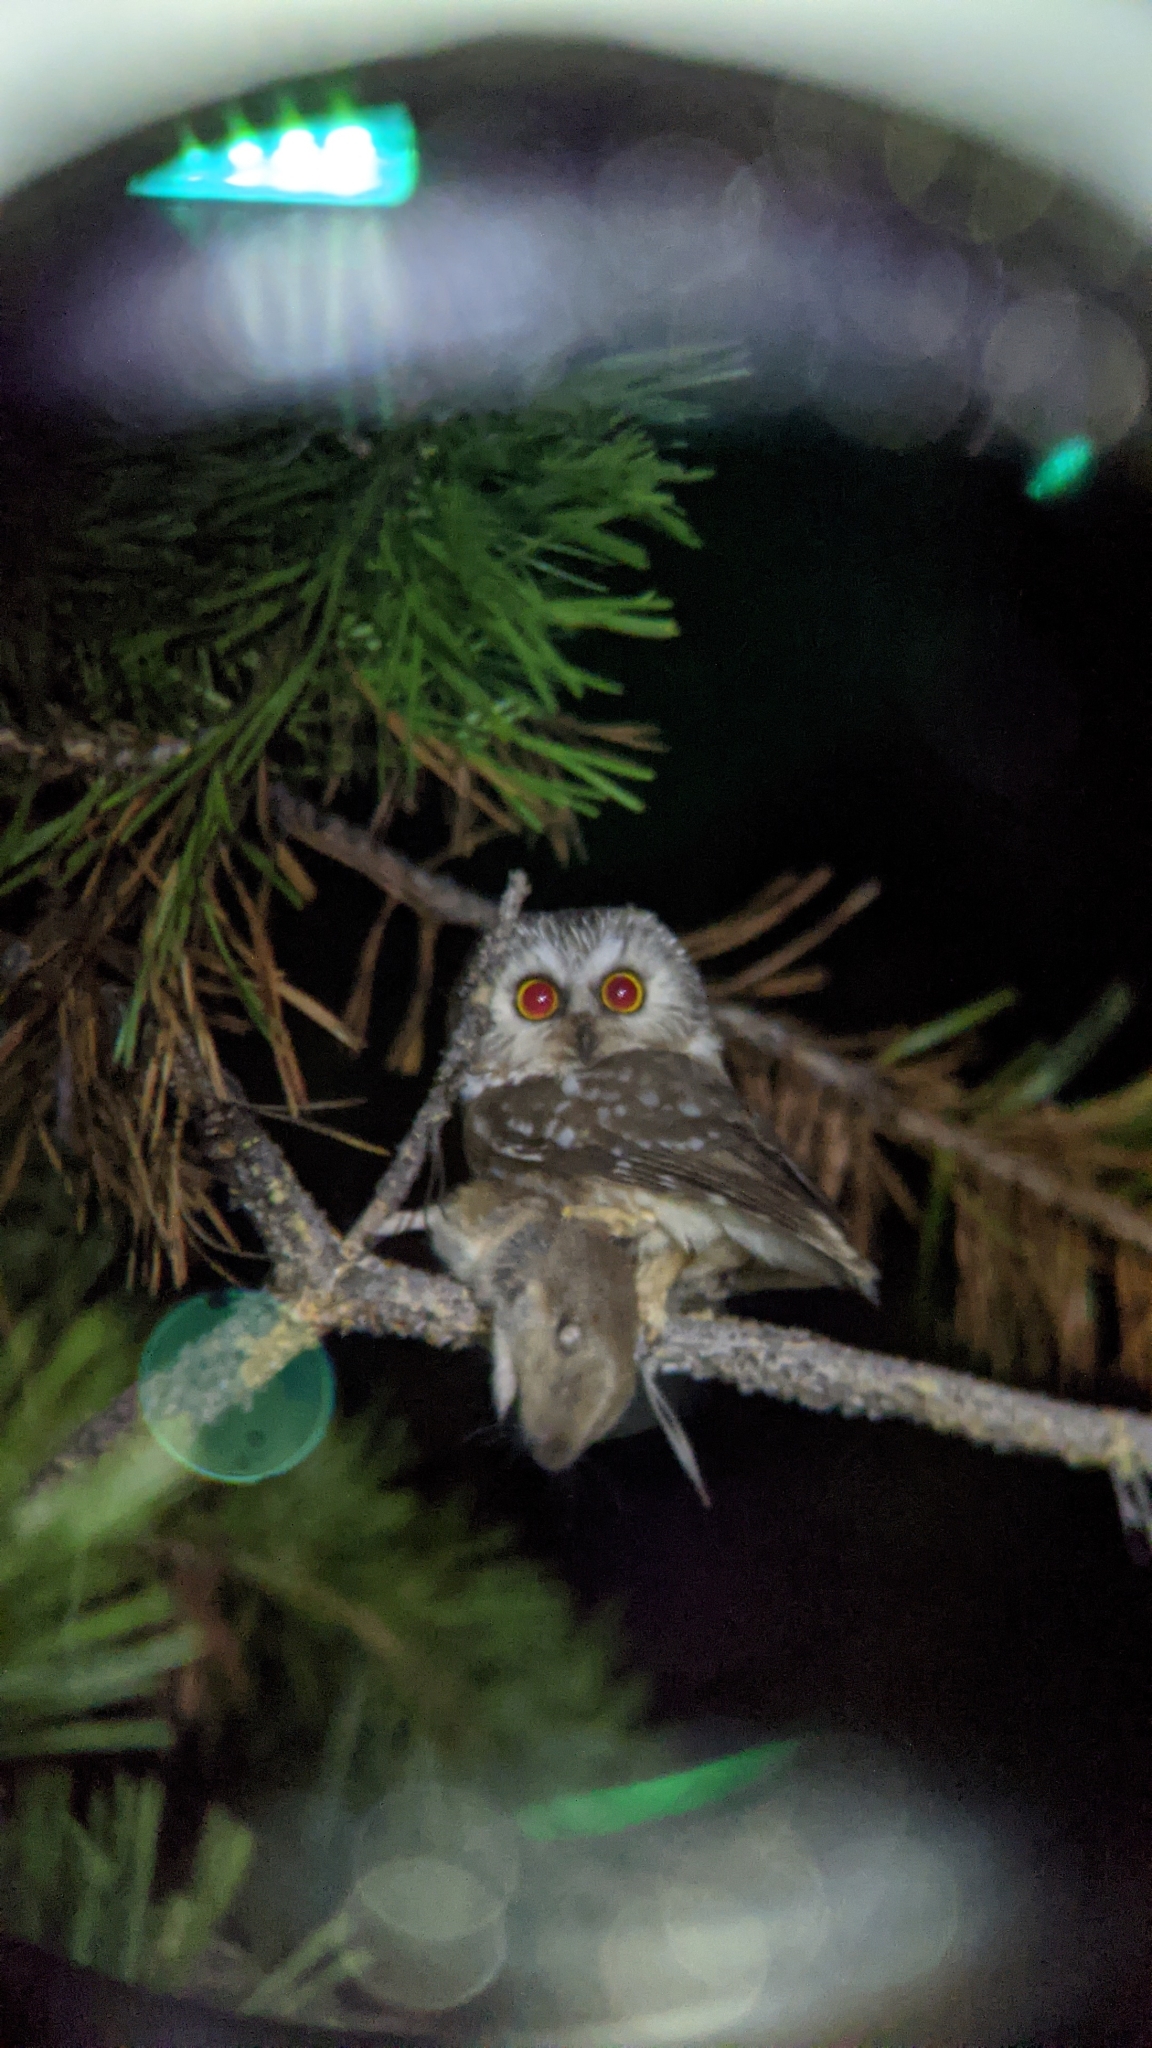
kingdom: Animalia
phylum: Chordata
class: Aves
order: Strigiformes
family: Strigidae
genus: Aegolius
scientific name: Aegolius acadicus
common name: Northern saw-whet owl
